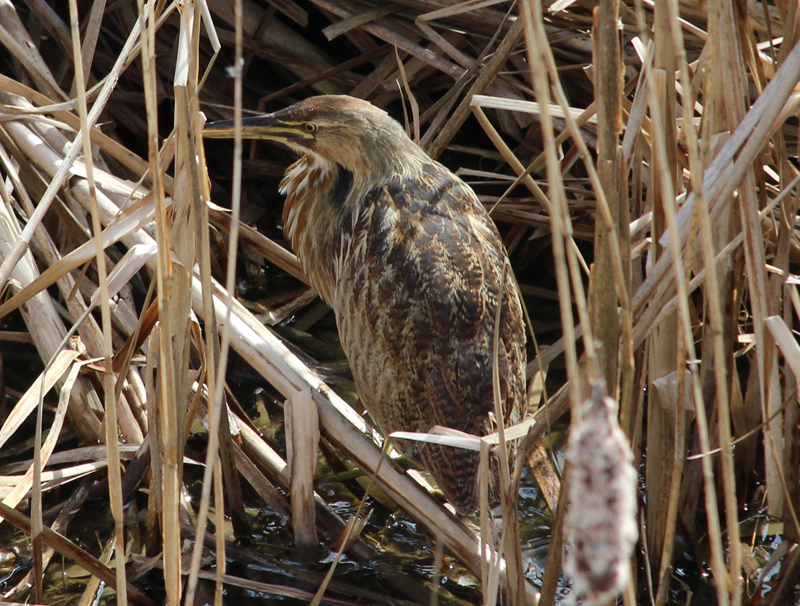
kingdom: Animalia
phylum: Chordata
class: Aves
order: Pelecaniformes
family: Ardeidae
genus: Botaurus
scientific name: Botaurus lentiginosus
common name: American bittern
